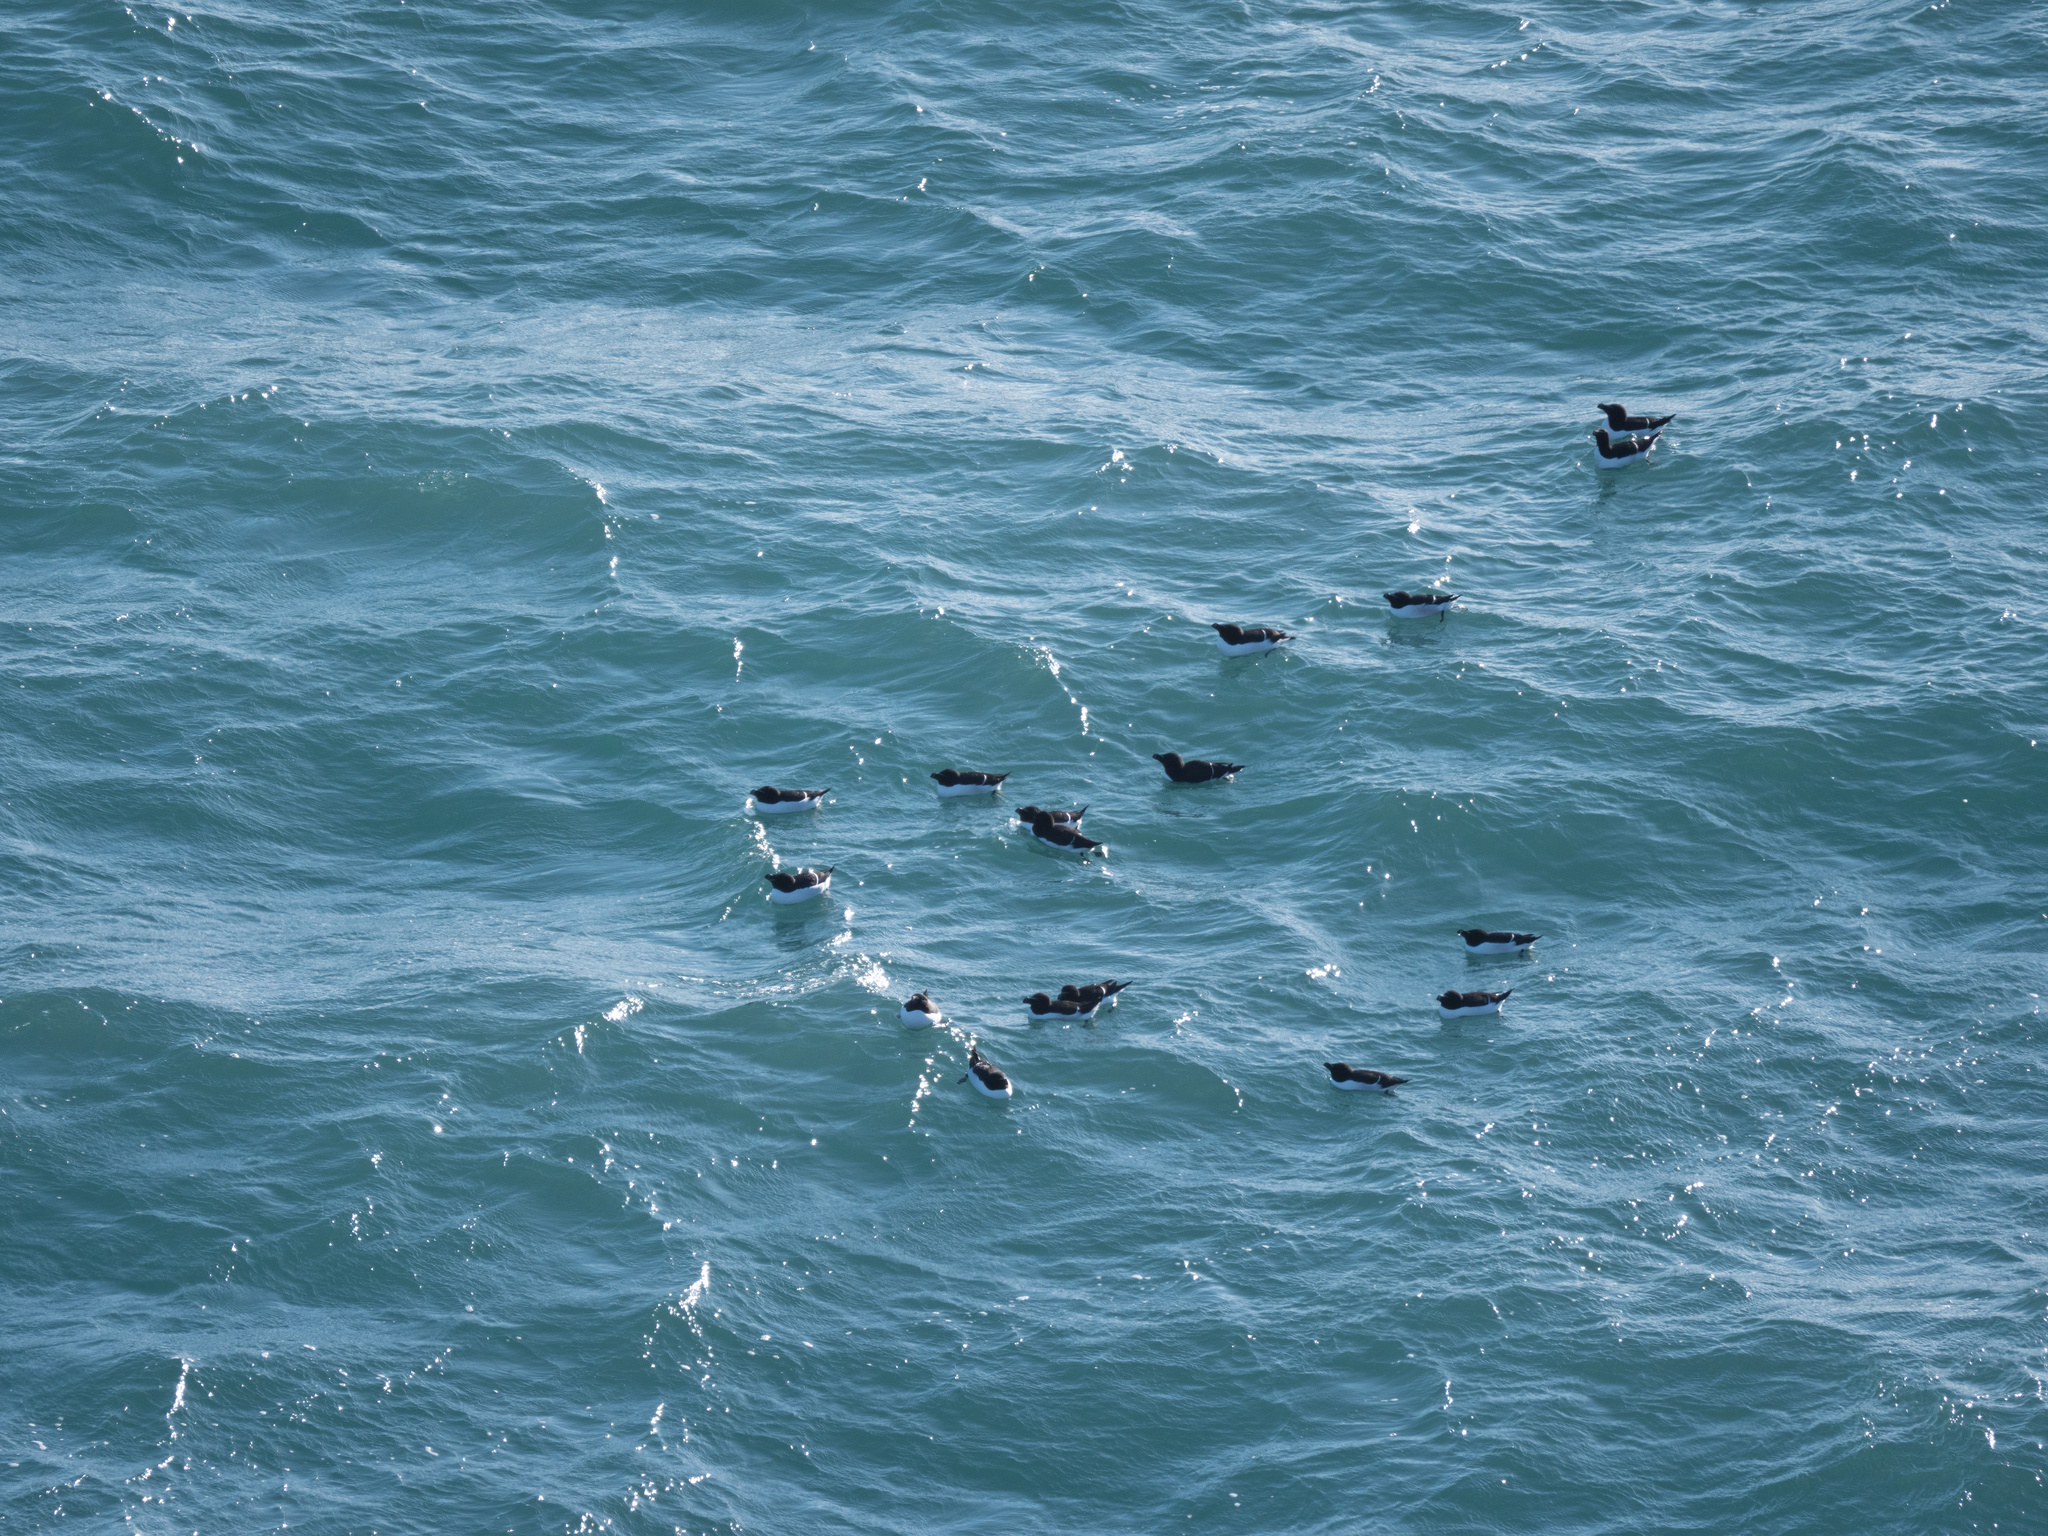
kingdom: Animalia
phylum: Chordata
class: Aves
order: Charadriiformes
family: Alcidae
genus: Alca
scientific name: Alca torda
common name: Razorbill
